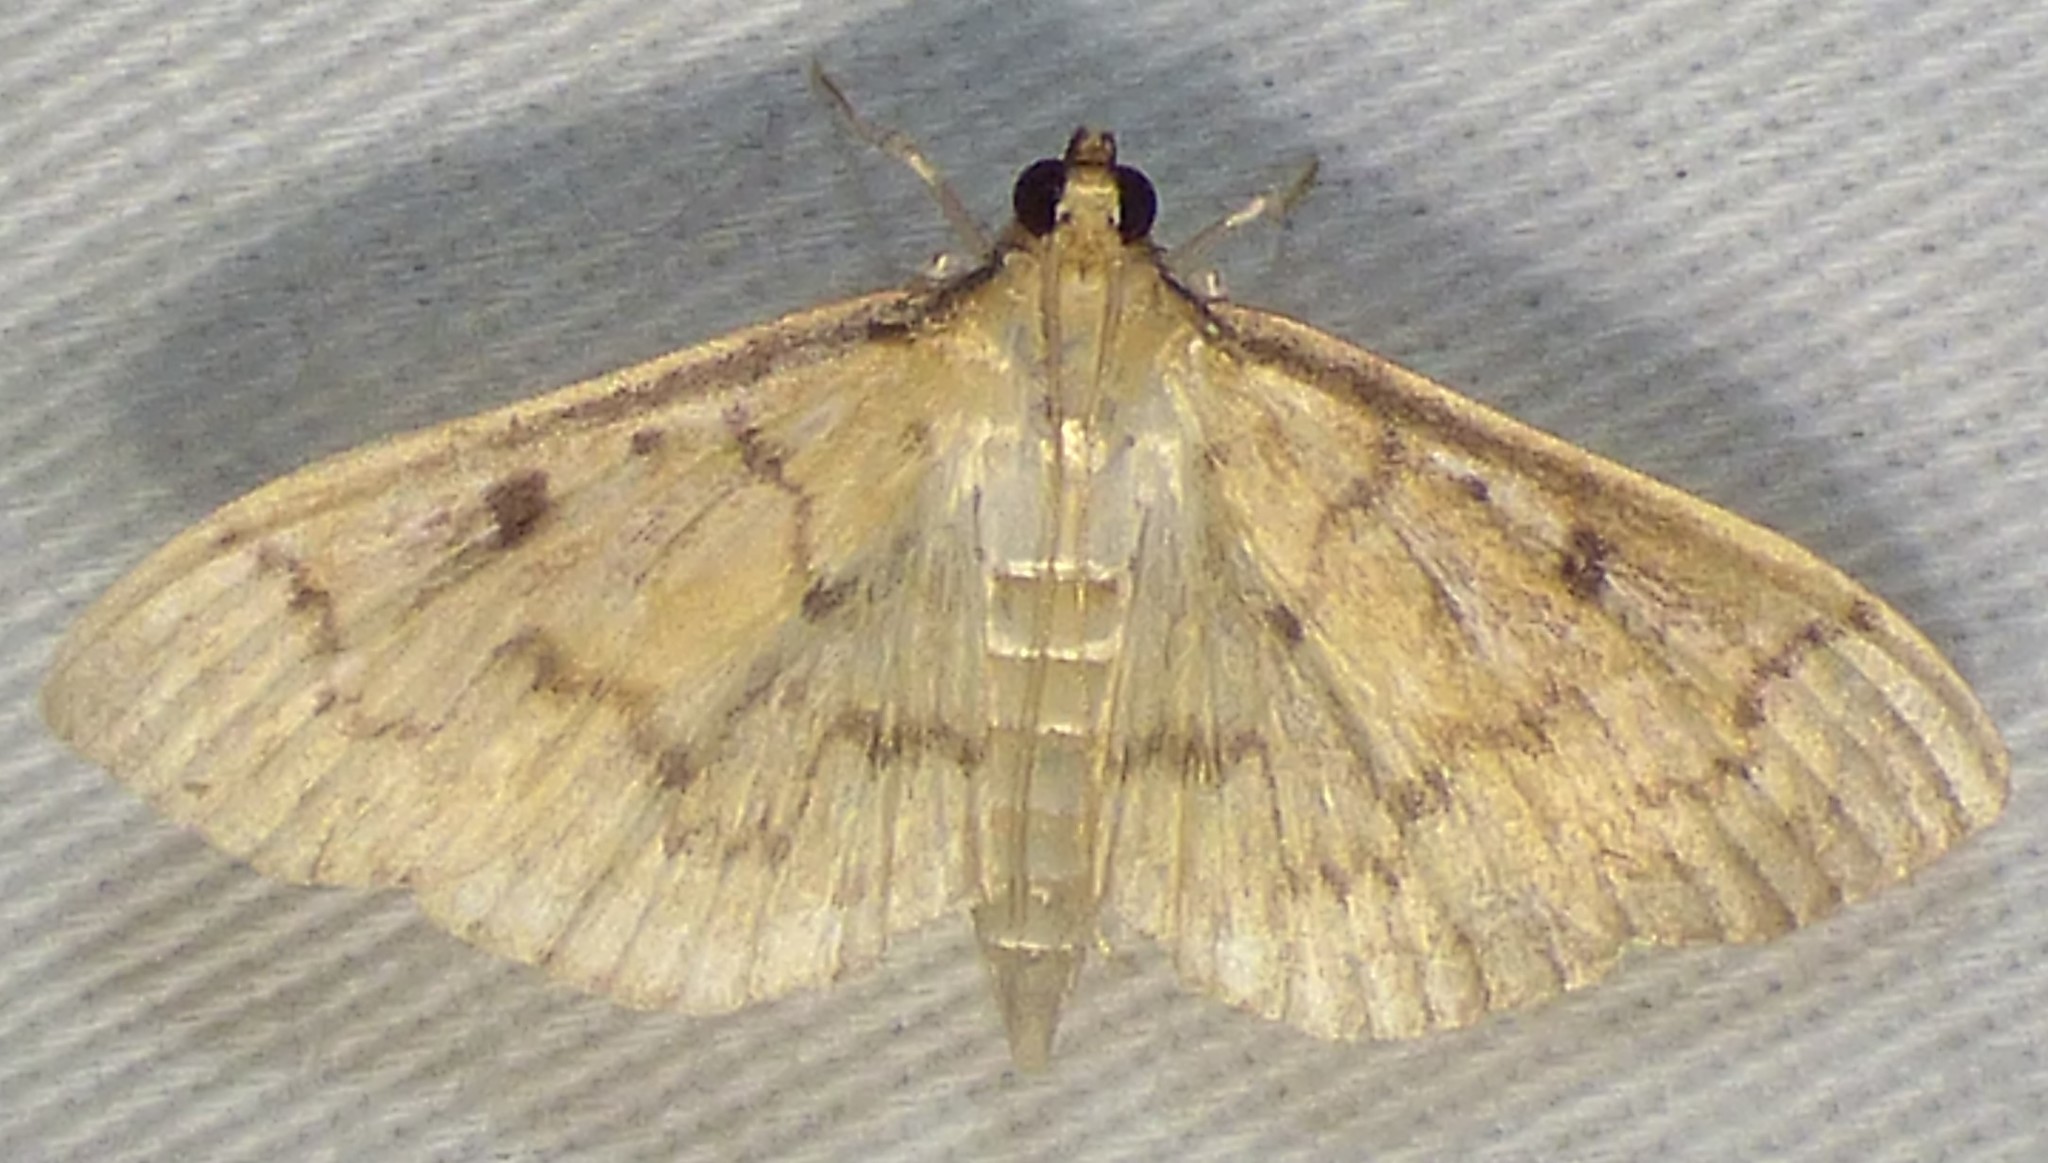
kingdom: Animalia
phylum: Arthropoda
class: Insecta
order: Lepidoptera
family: Crambidae
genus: Herpetogramma
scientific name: Herpetogramma bipunctalis
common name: Southern beet webworm
